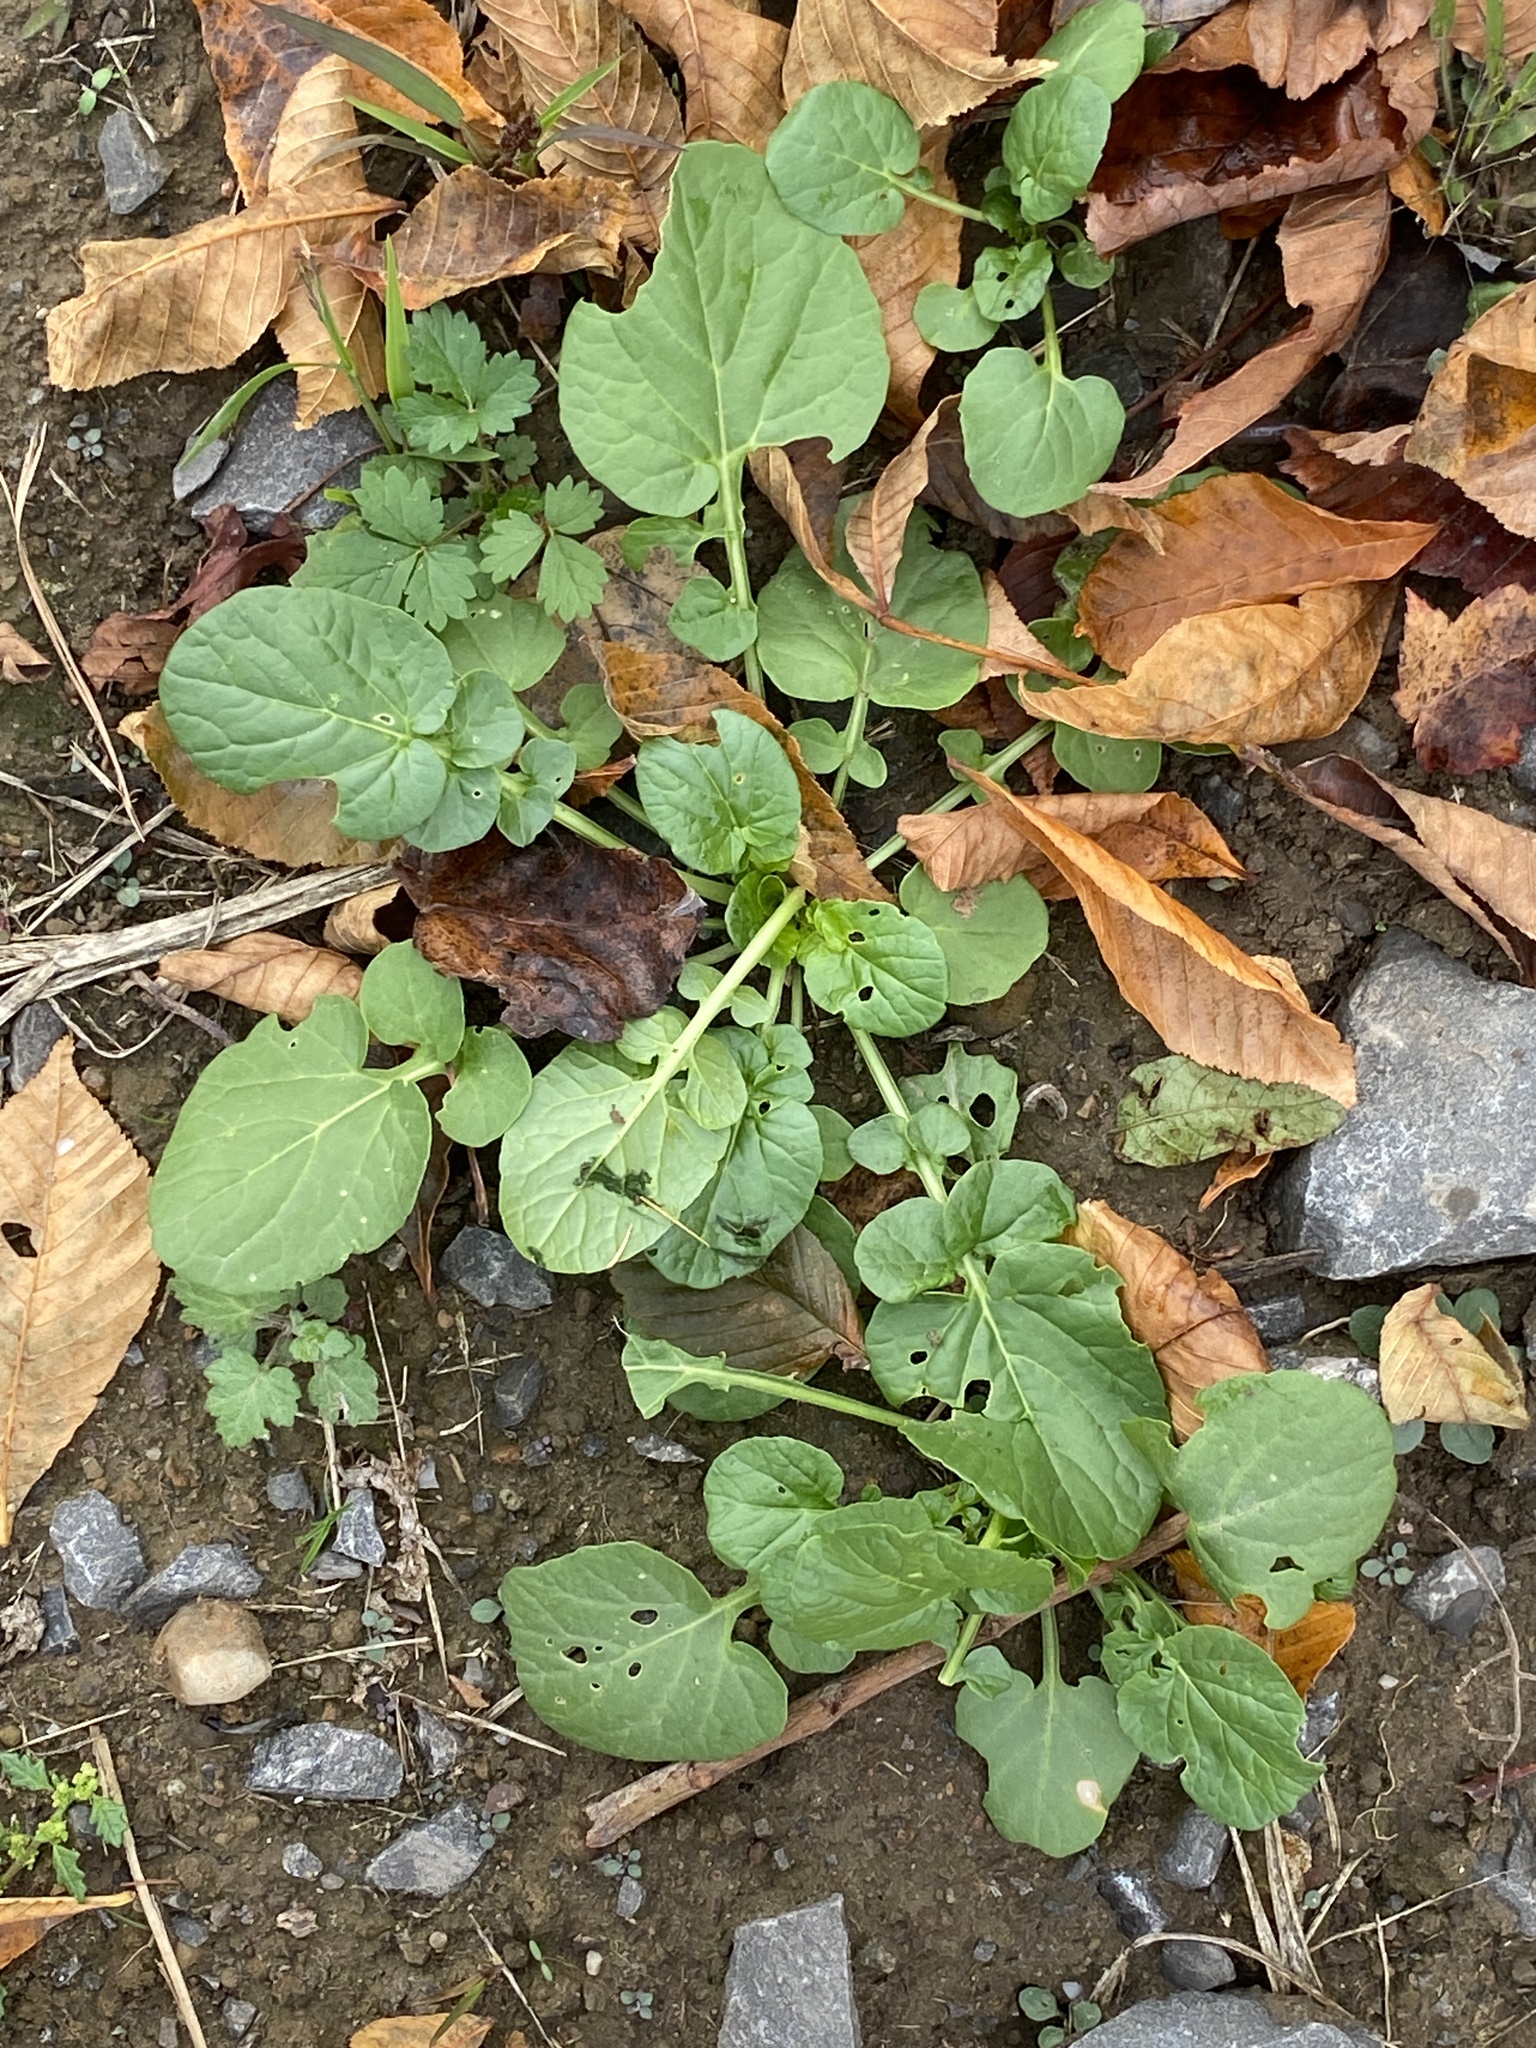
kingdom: Plantae
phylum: Tracheophyta
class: Magnoliopsida
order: Brassicales
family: Brassicaceae
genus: Barbarea
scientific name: Barbarea vulgaris
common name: Cressy-greens
